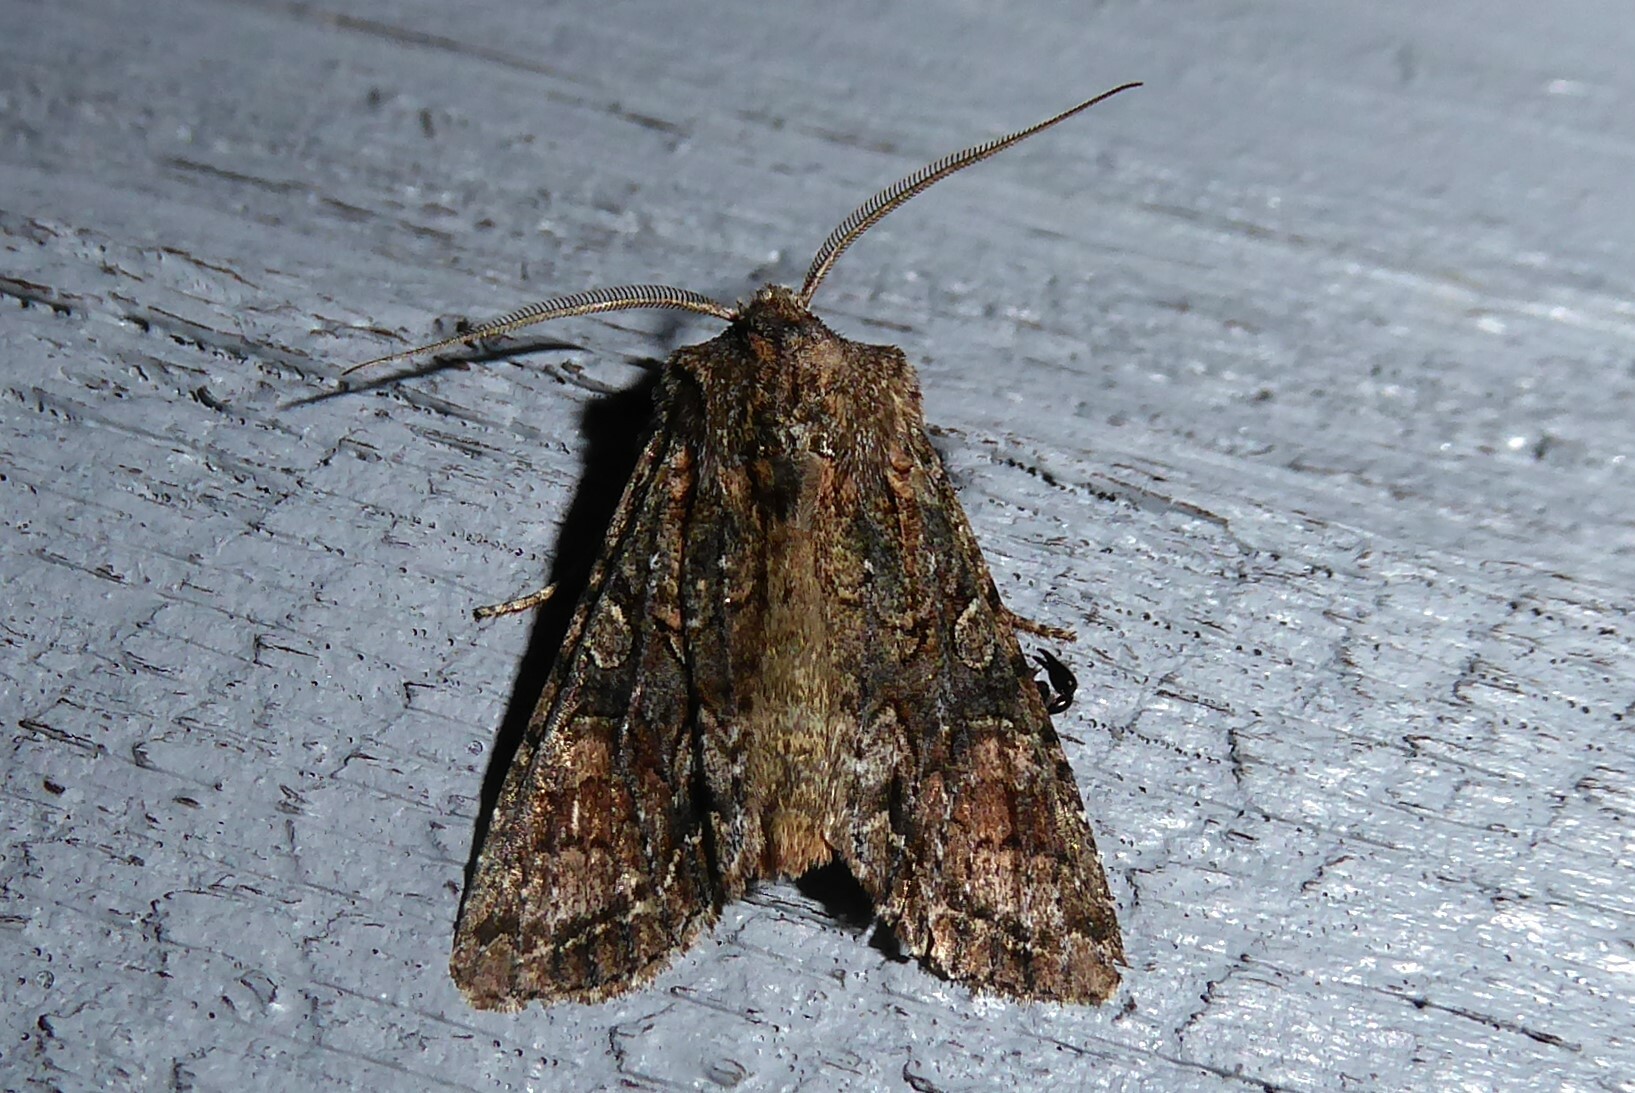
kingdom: Animalia
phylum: Arthropoda
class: Insecta
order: Lepidoptera
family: Noctuidae
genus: Ichneutica
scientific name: Ichneutica mutans
